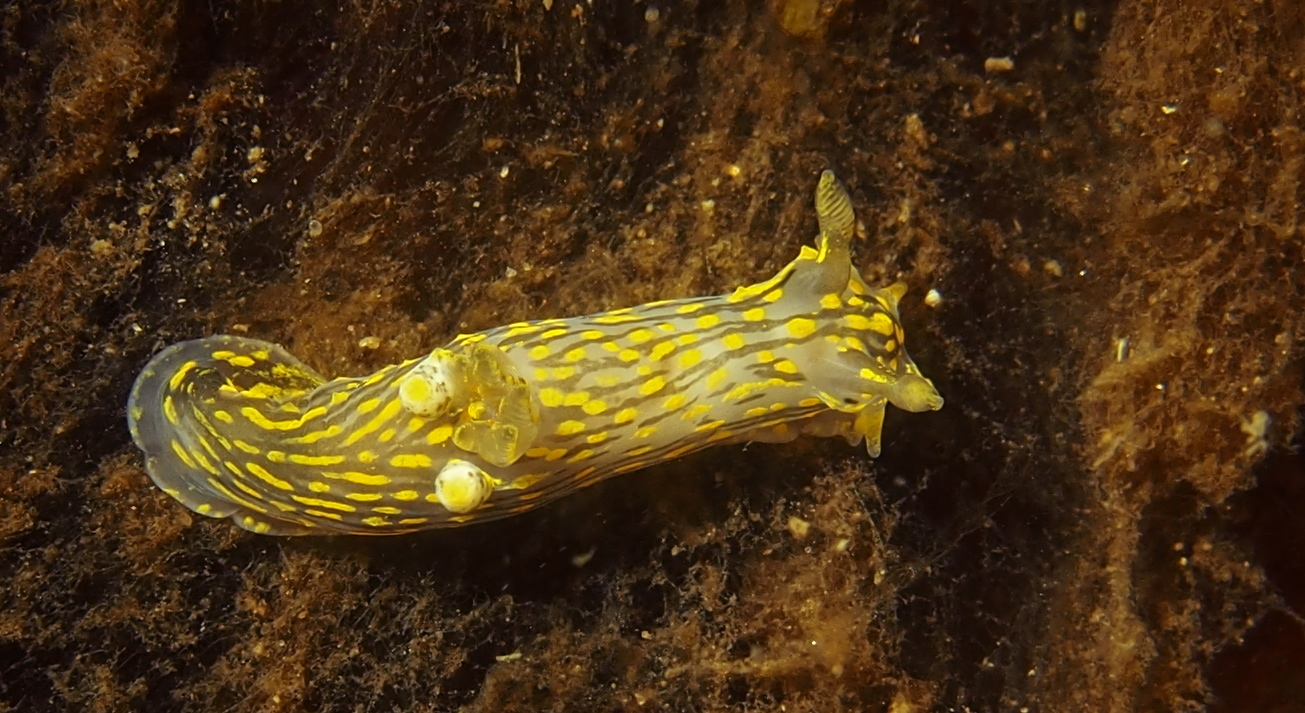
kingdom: Animalia
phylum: Mollusca
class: Gastropoda
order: Nudibranchia
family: Polyceridae
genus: Polycera
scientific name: Polycera quadrilineata
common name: Four-striped polycera
